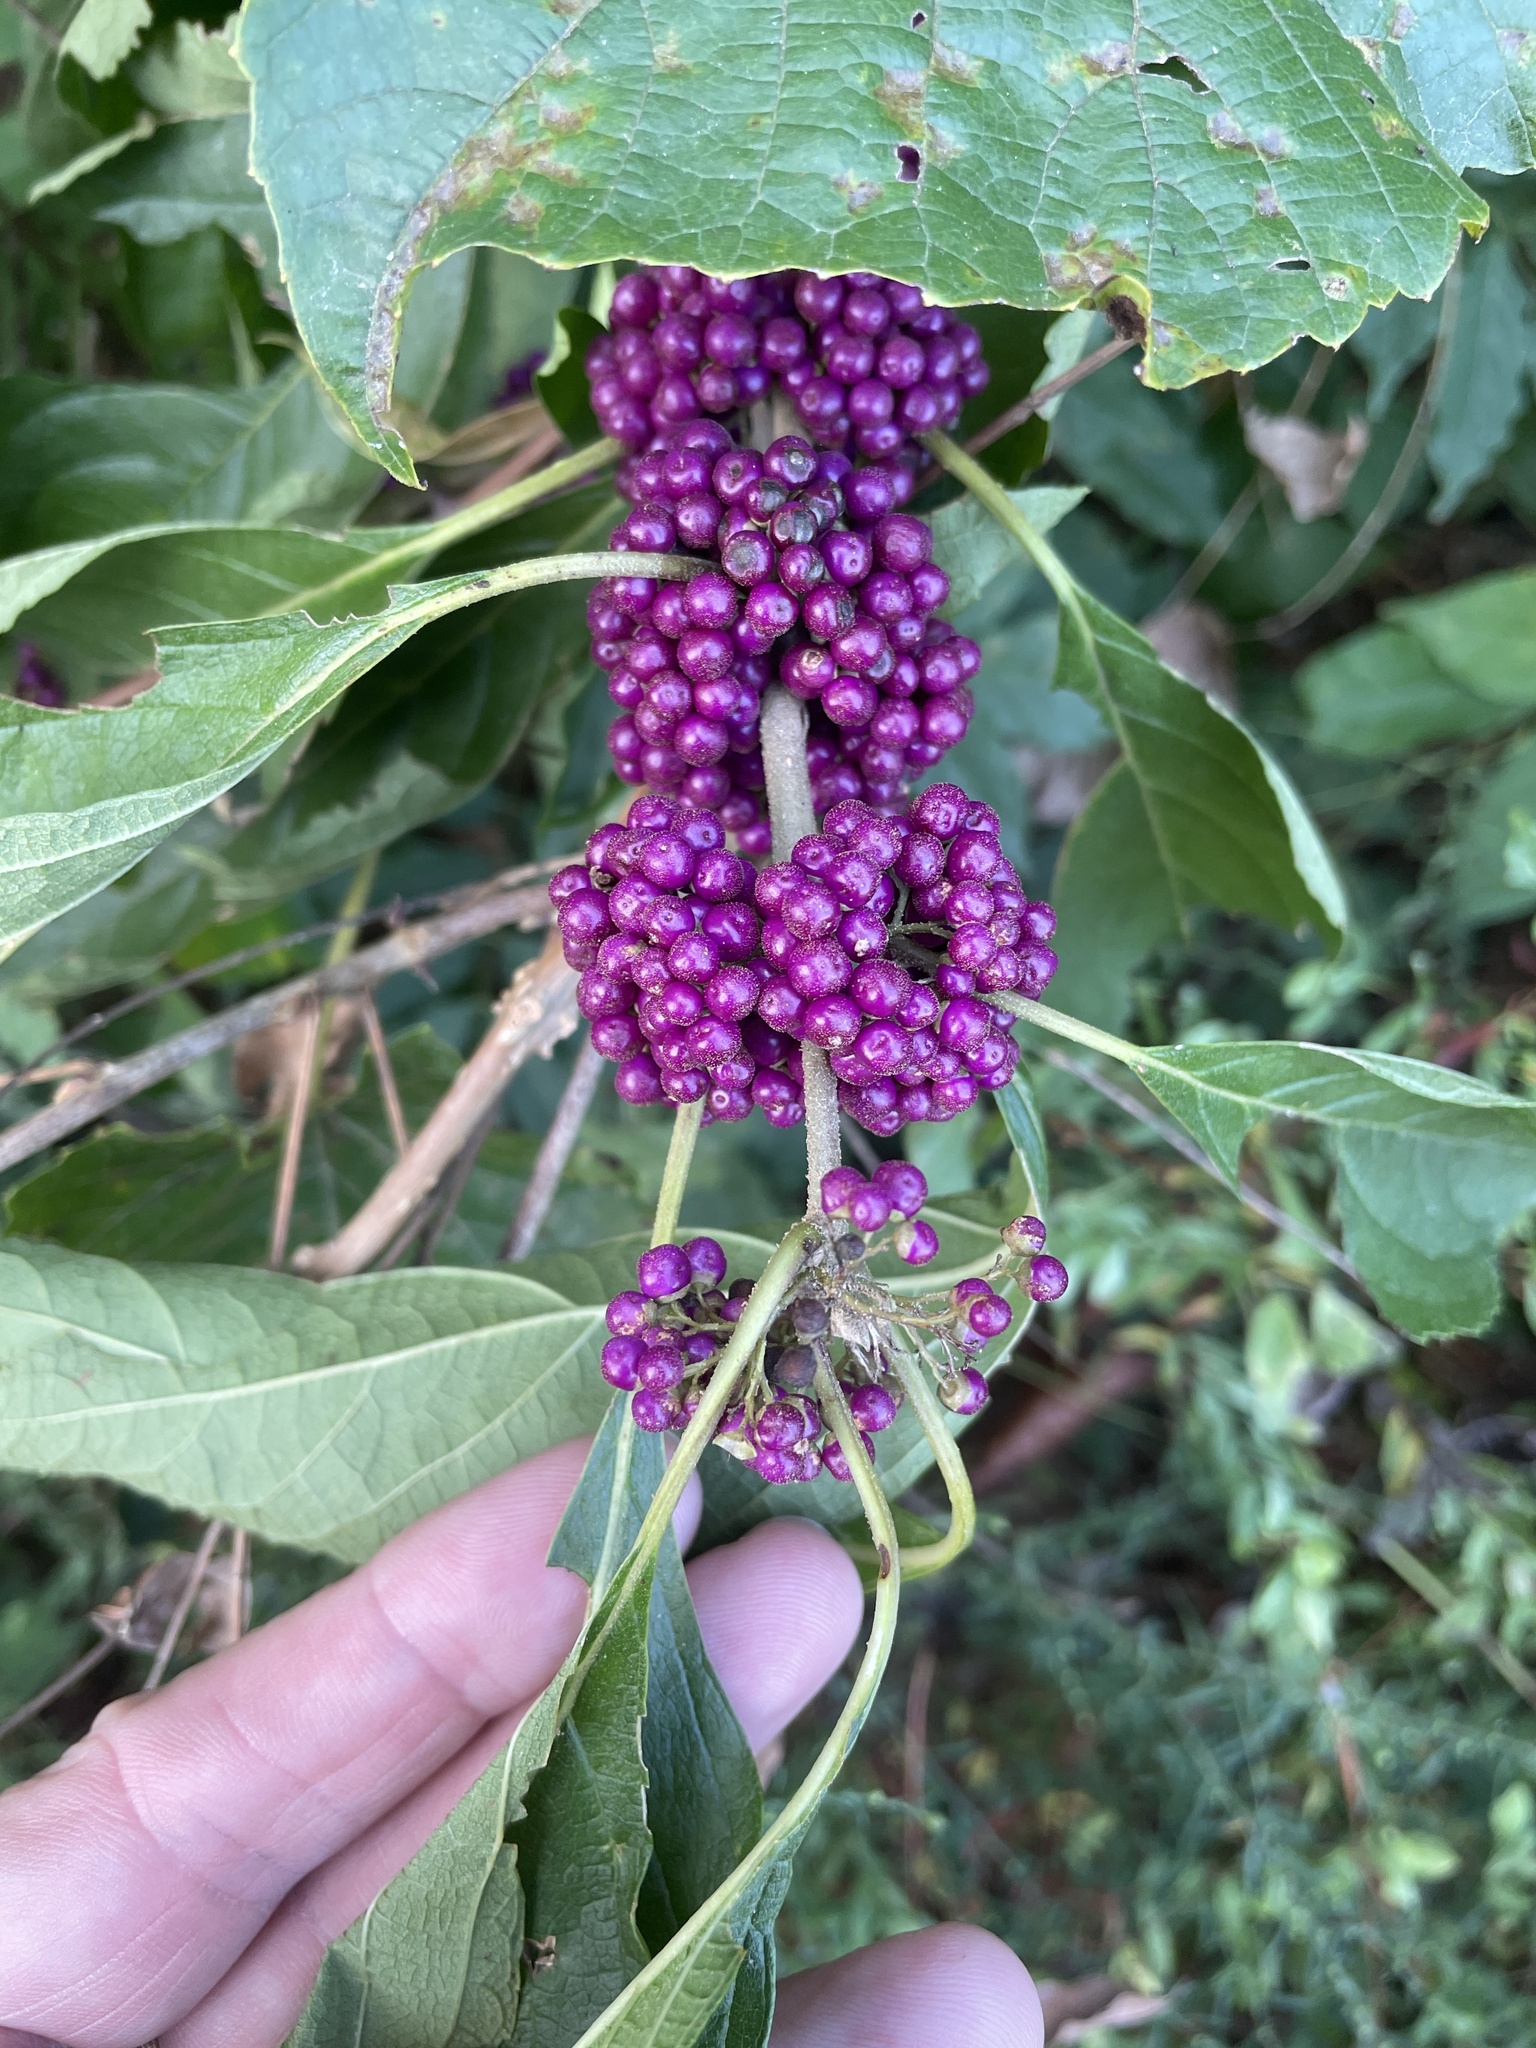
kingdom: Plantae
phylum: Tracheophyta
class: Magnoliopsida
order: Lamiales
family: Lamiaceae
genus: Callicarpa
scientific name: Callicarpa americana
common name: American beautyberry
